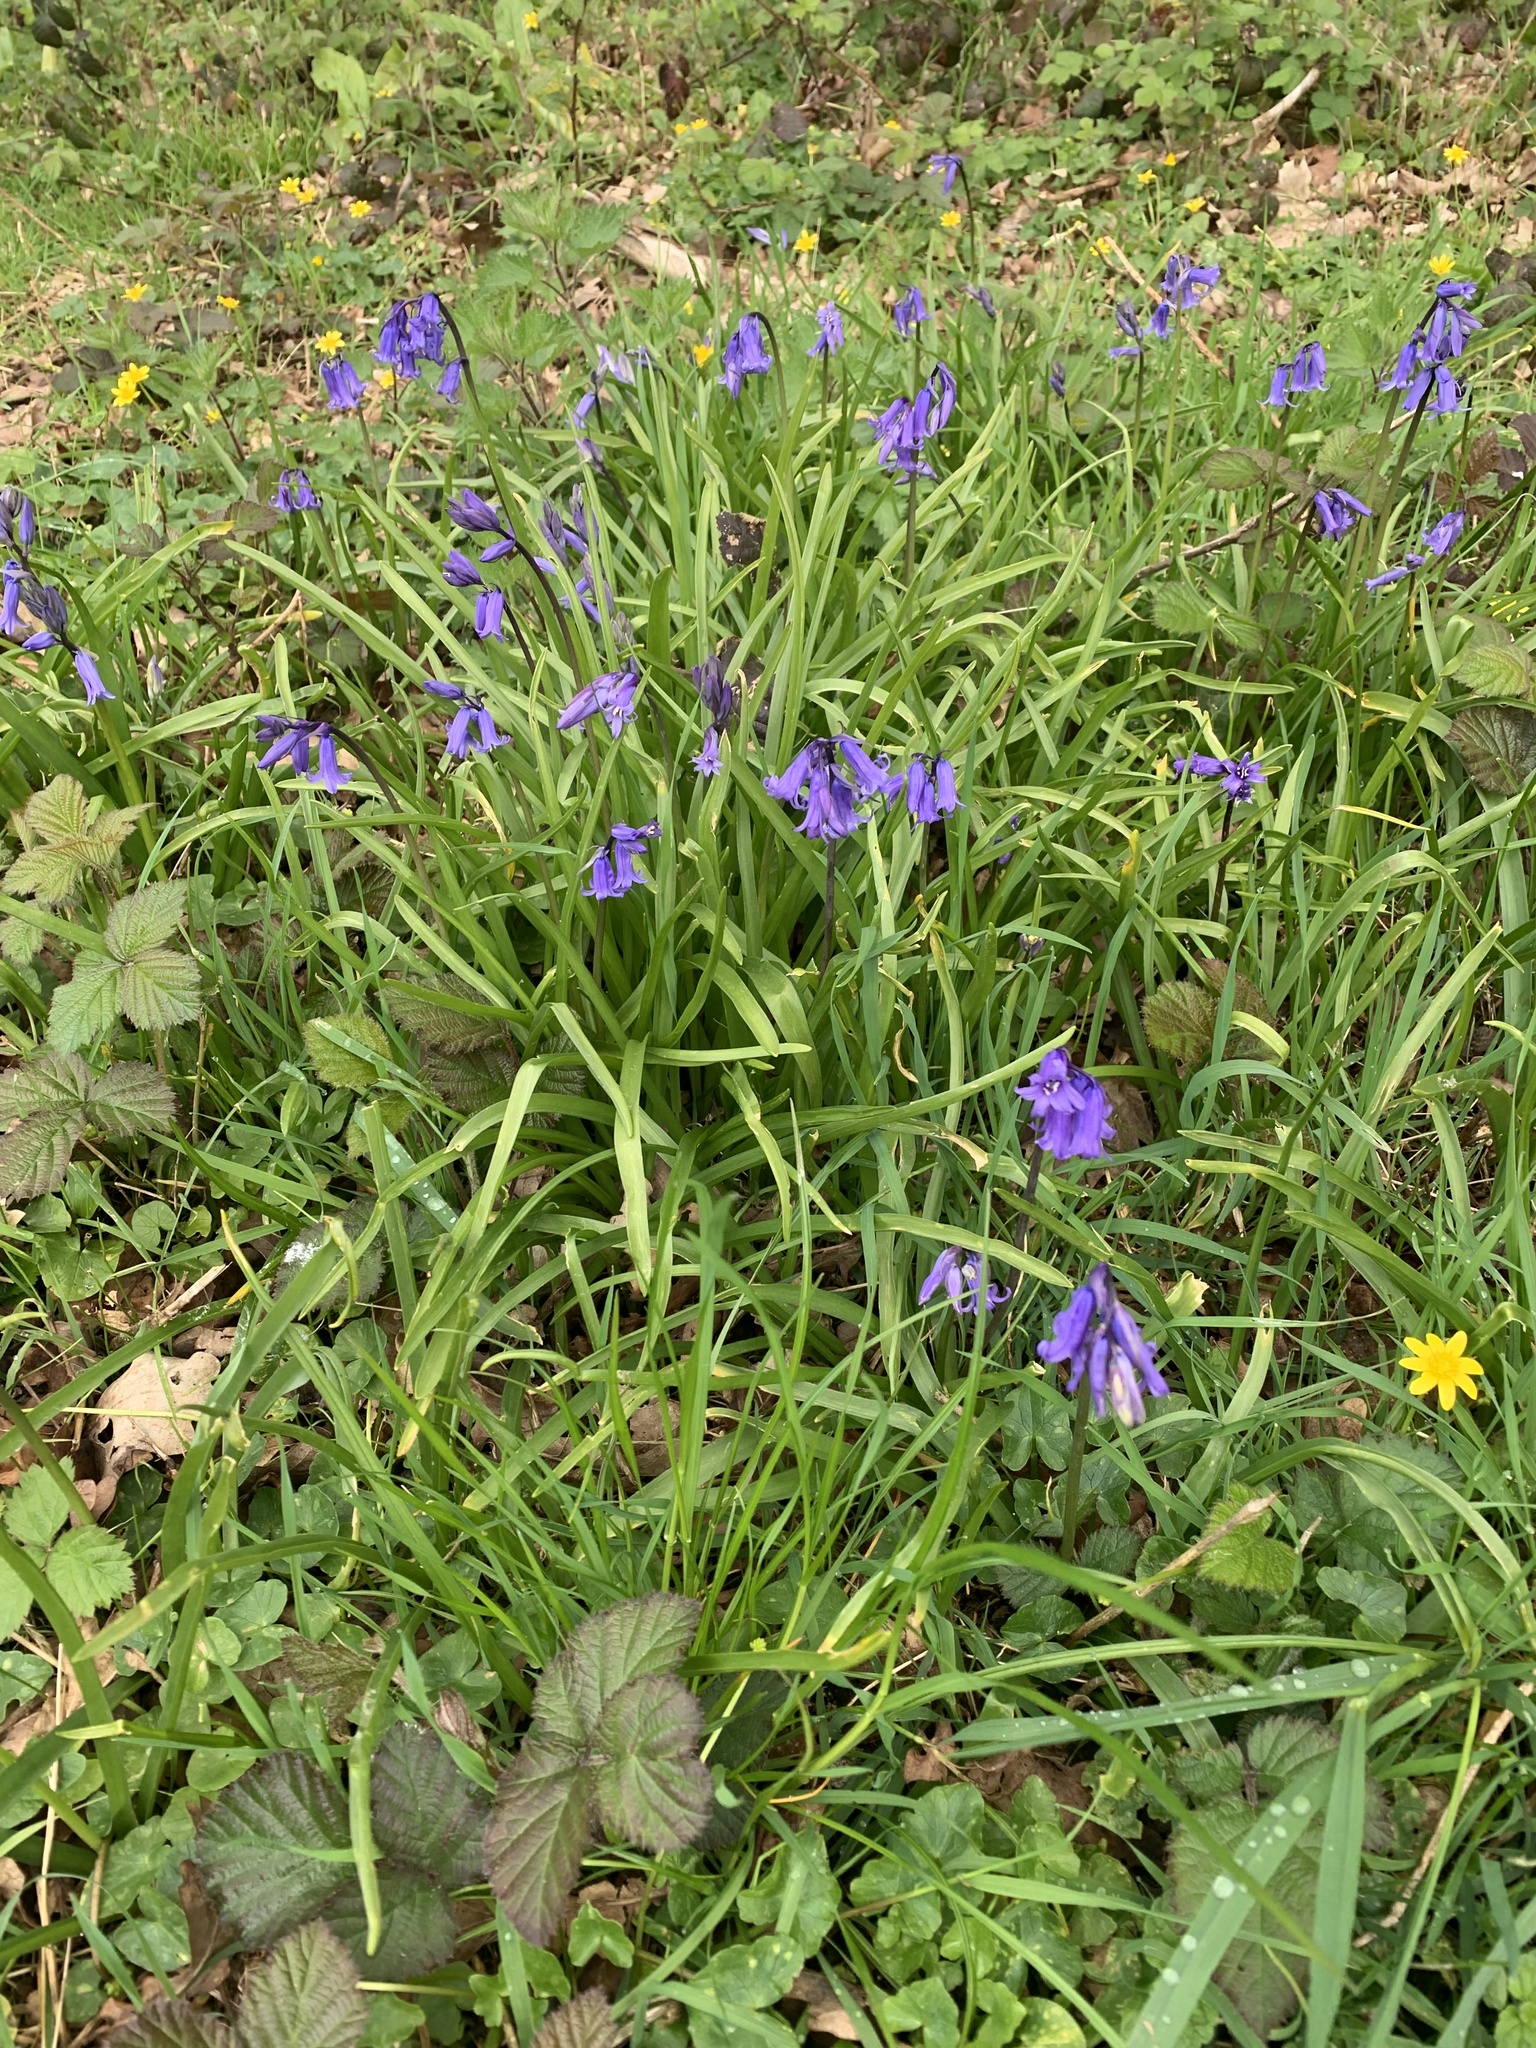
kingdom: Plantae
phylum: Tracheophyta
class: Liliopsida
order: Asparagales
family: Asparagaceae
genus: Hyacinthoides
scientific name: Hyacinthoides non-scripta
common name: Bluebell
